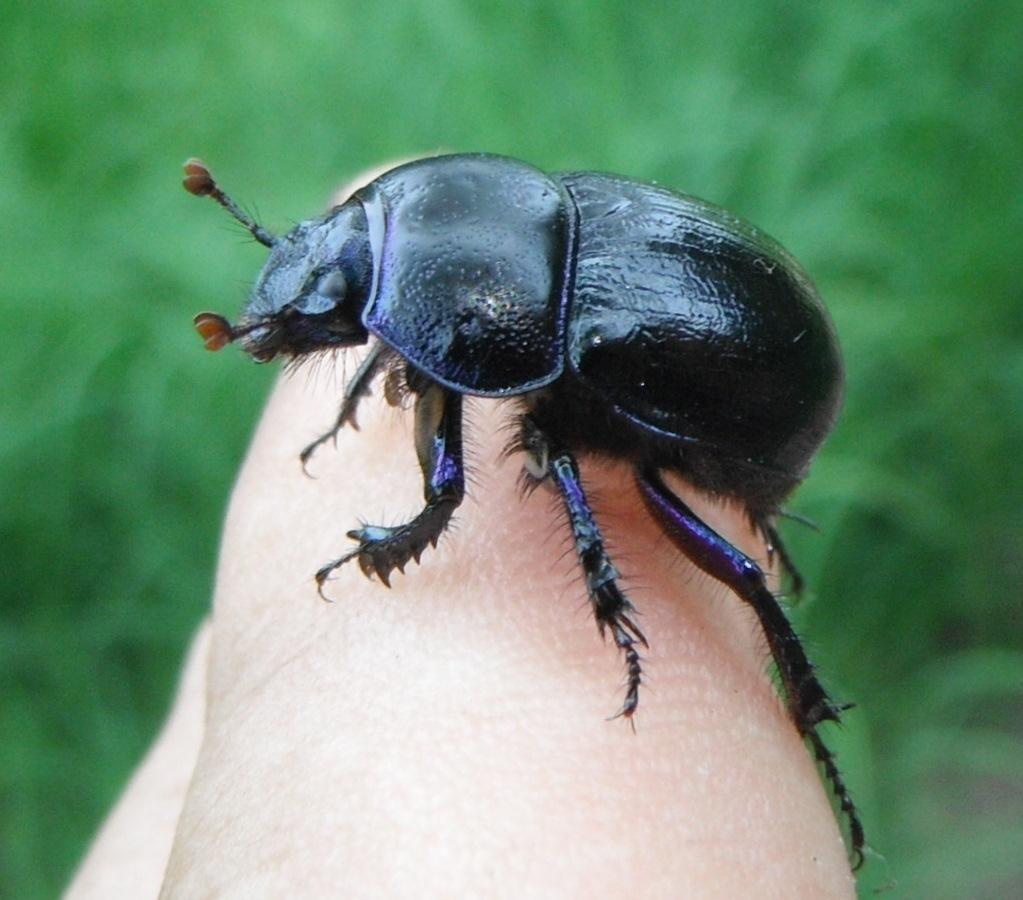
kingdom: Animalia
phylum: Arthropoda
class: Insecta
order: Coleoptera
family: Geotrupidae
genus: Anoplotrupes
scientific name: Anoplotrupes stercorosus
